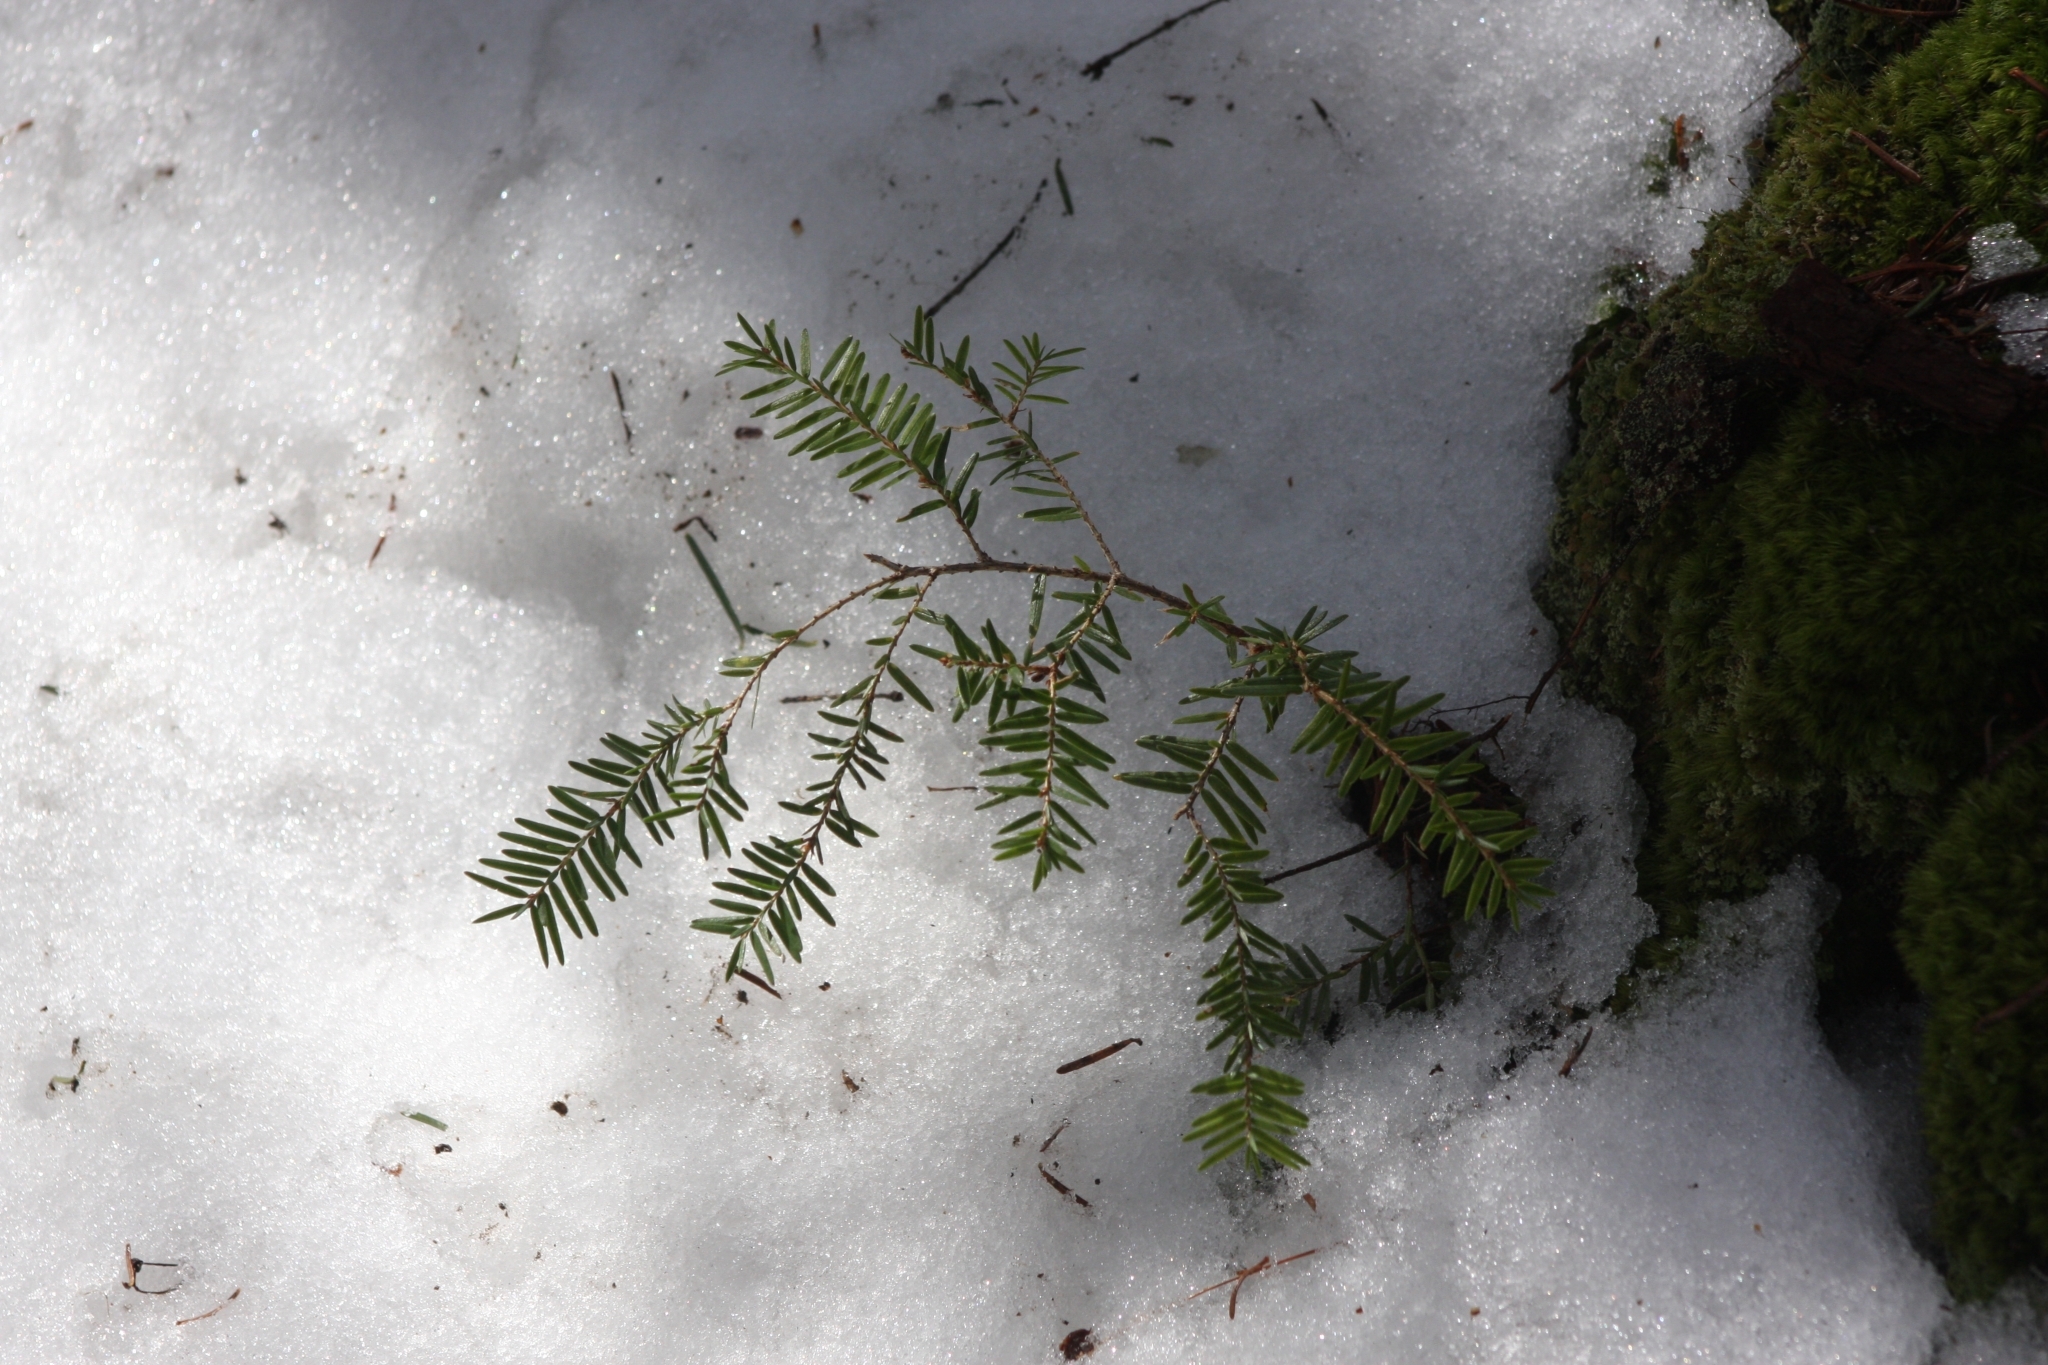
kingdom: Plantae
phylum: Tracheophyta
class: Pinopsida
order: Pinales
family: Pinaceae
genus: Tsuga
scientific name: Tsuga canadensis
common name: Eastern hemlock
